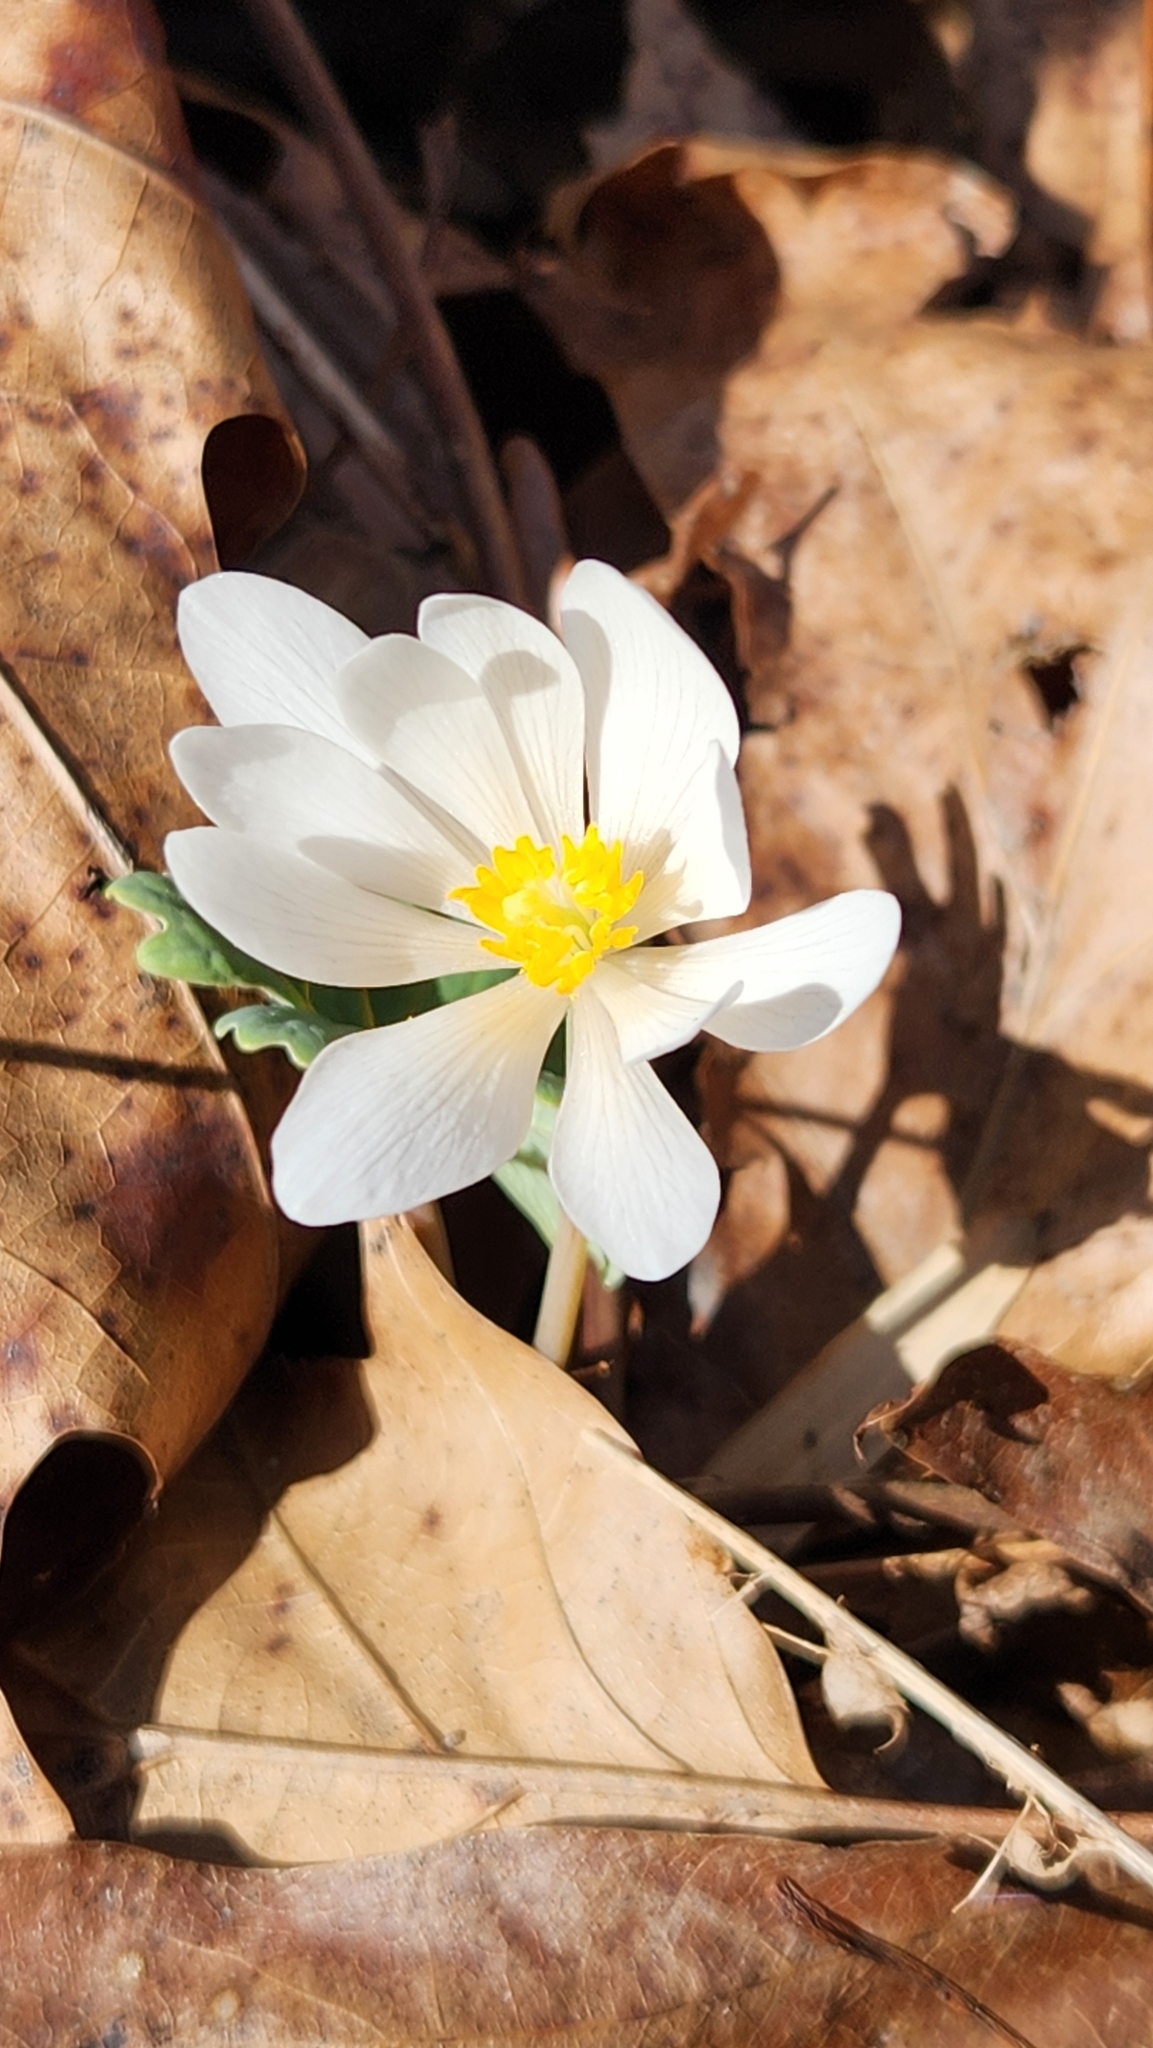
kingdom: Plantae
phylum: Tracheophyta
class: Magnoliopsida
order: Ranunculales
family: Papaveraceae
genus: Sanguinaria
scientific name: Sanguinaria canadensis
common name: Bloodroot
